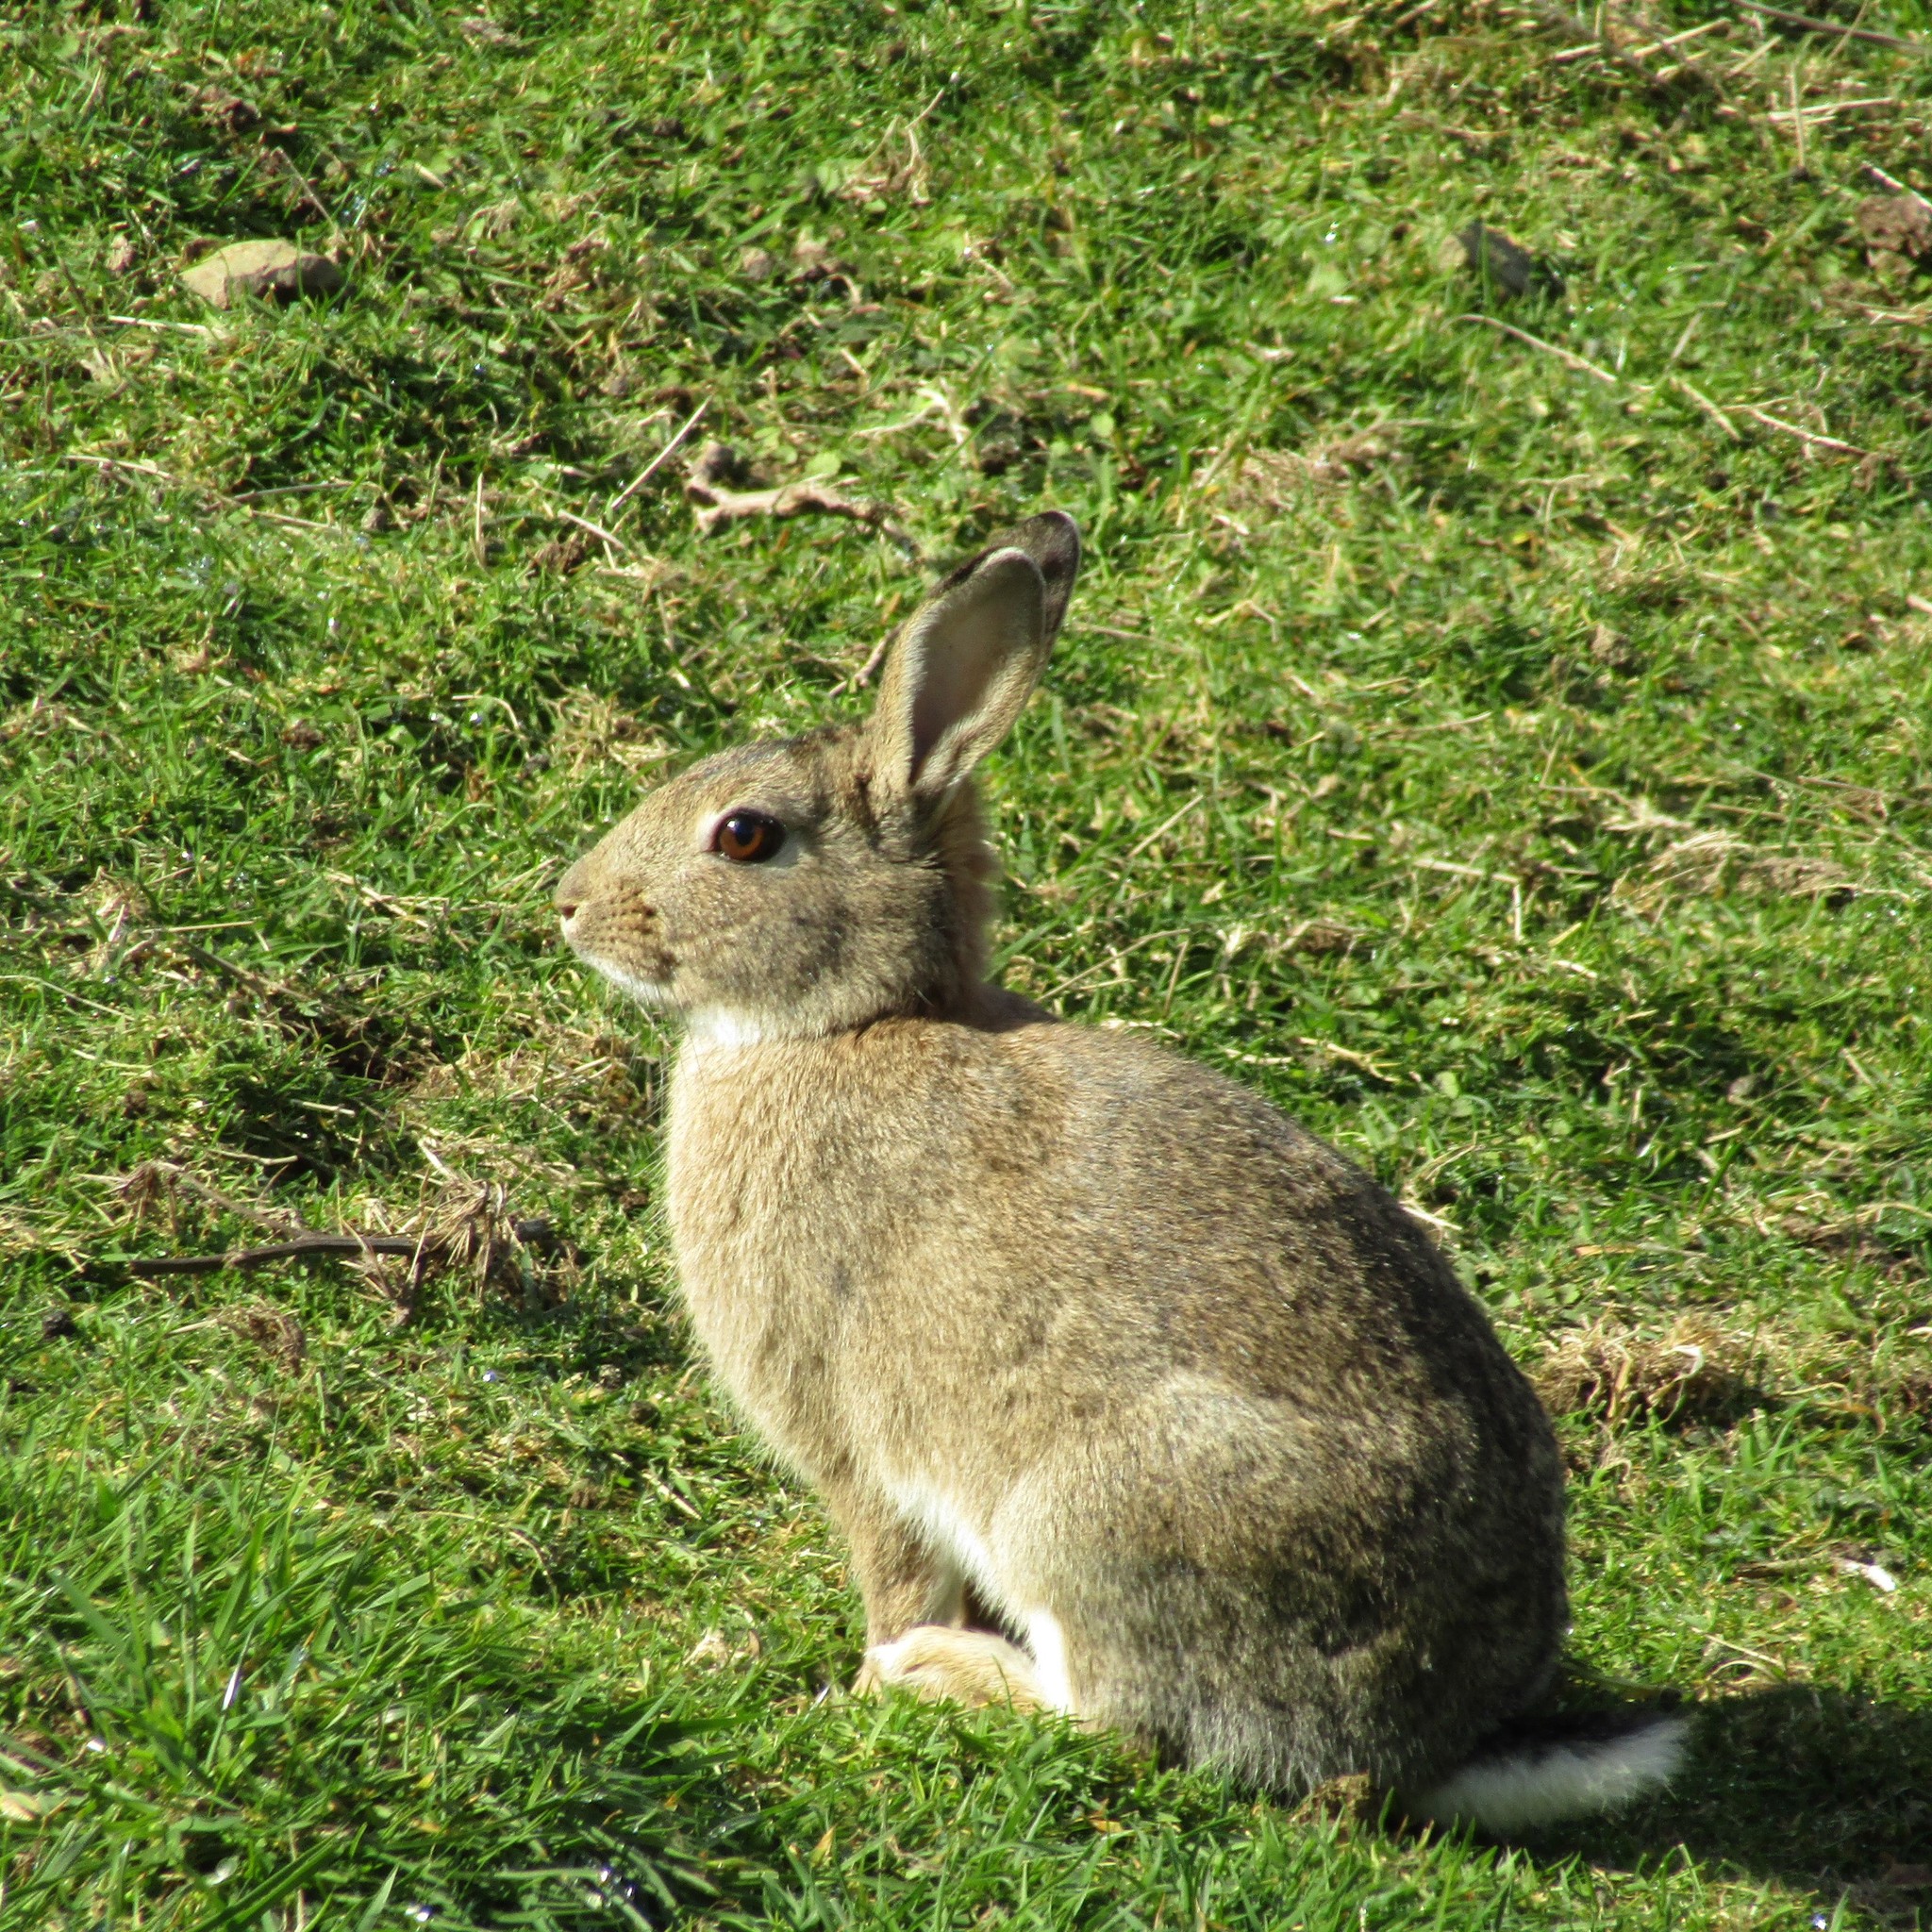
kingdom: Animalia
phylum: Chordata
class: Mammalia
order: Lagomorpha
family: Leporidae
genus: Oryctolagus
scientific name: Oryctolagus cuniculus
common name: European rabbit
